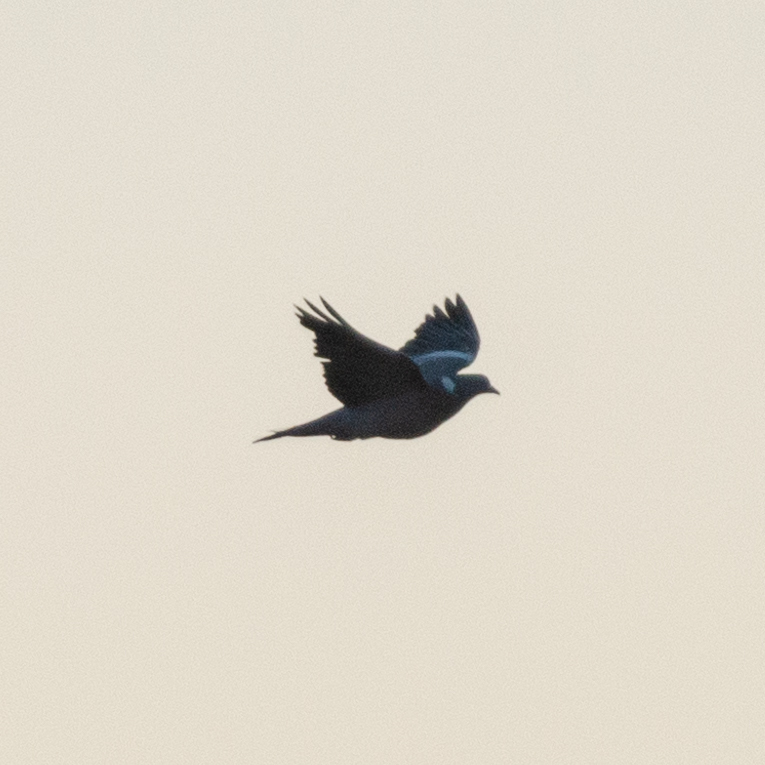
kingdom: Animalia
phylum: Chordata
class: Aves
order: Columbiformes
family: Columbidae
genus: Columba
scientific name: Columba palumbus
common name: Common wood pigeon
